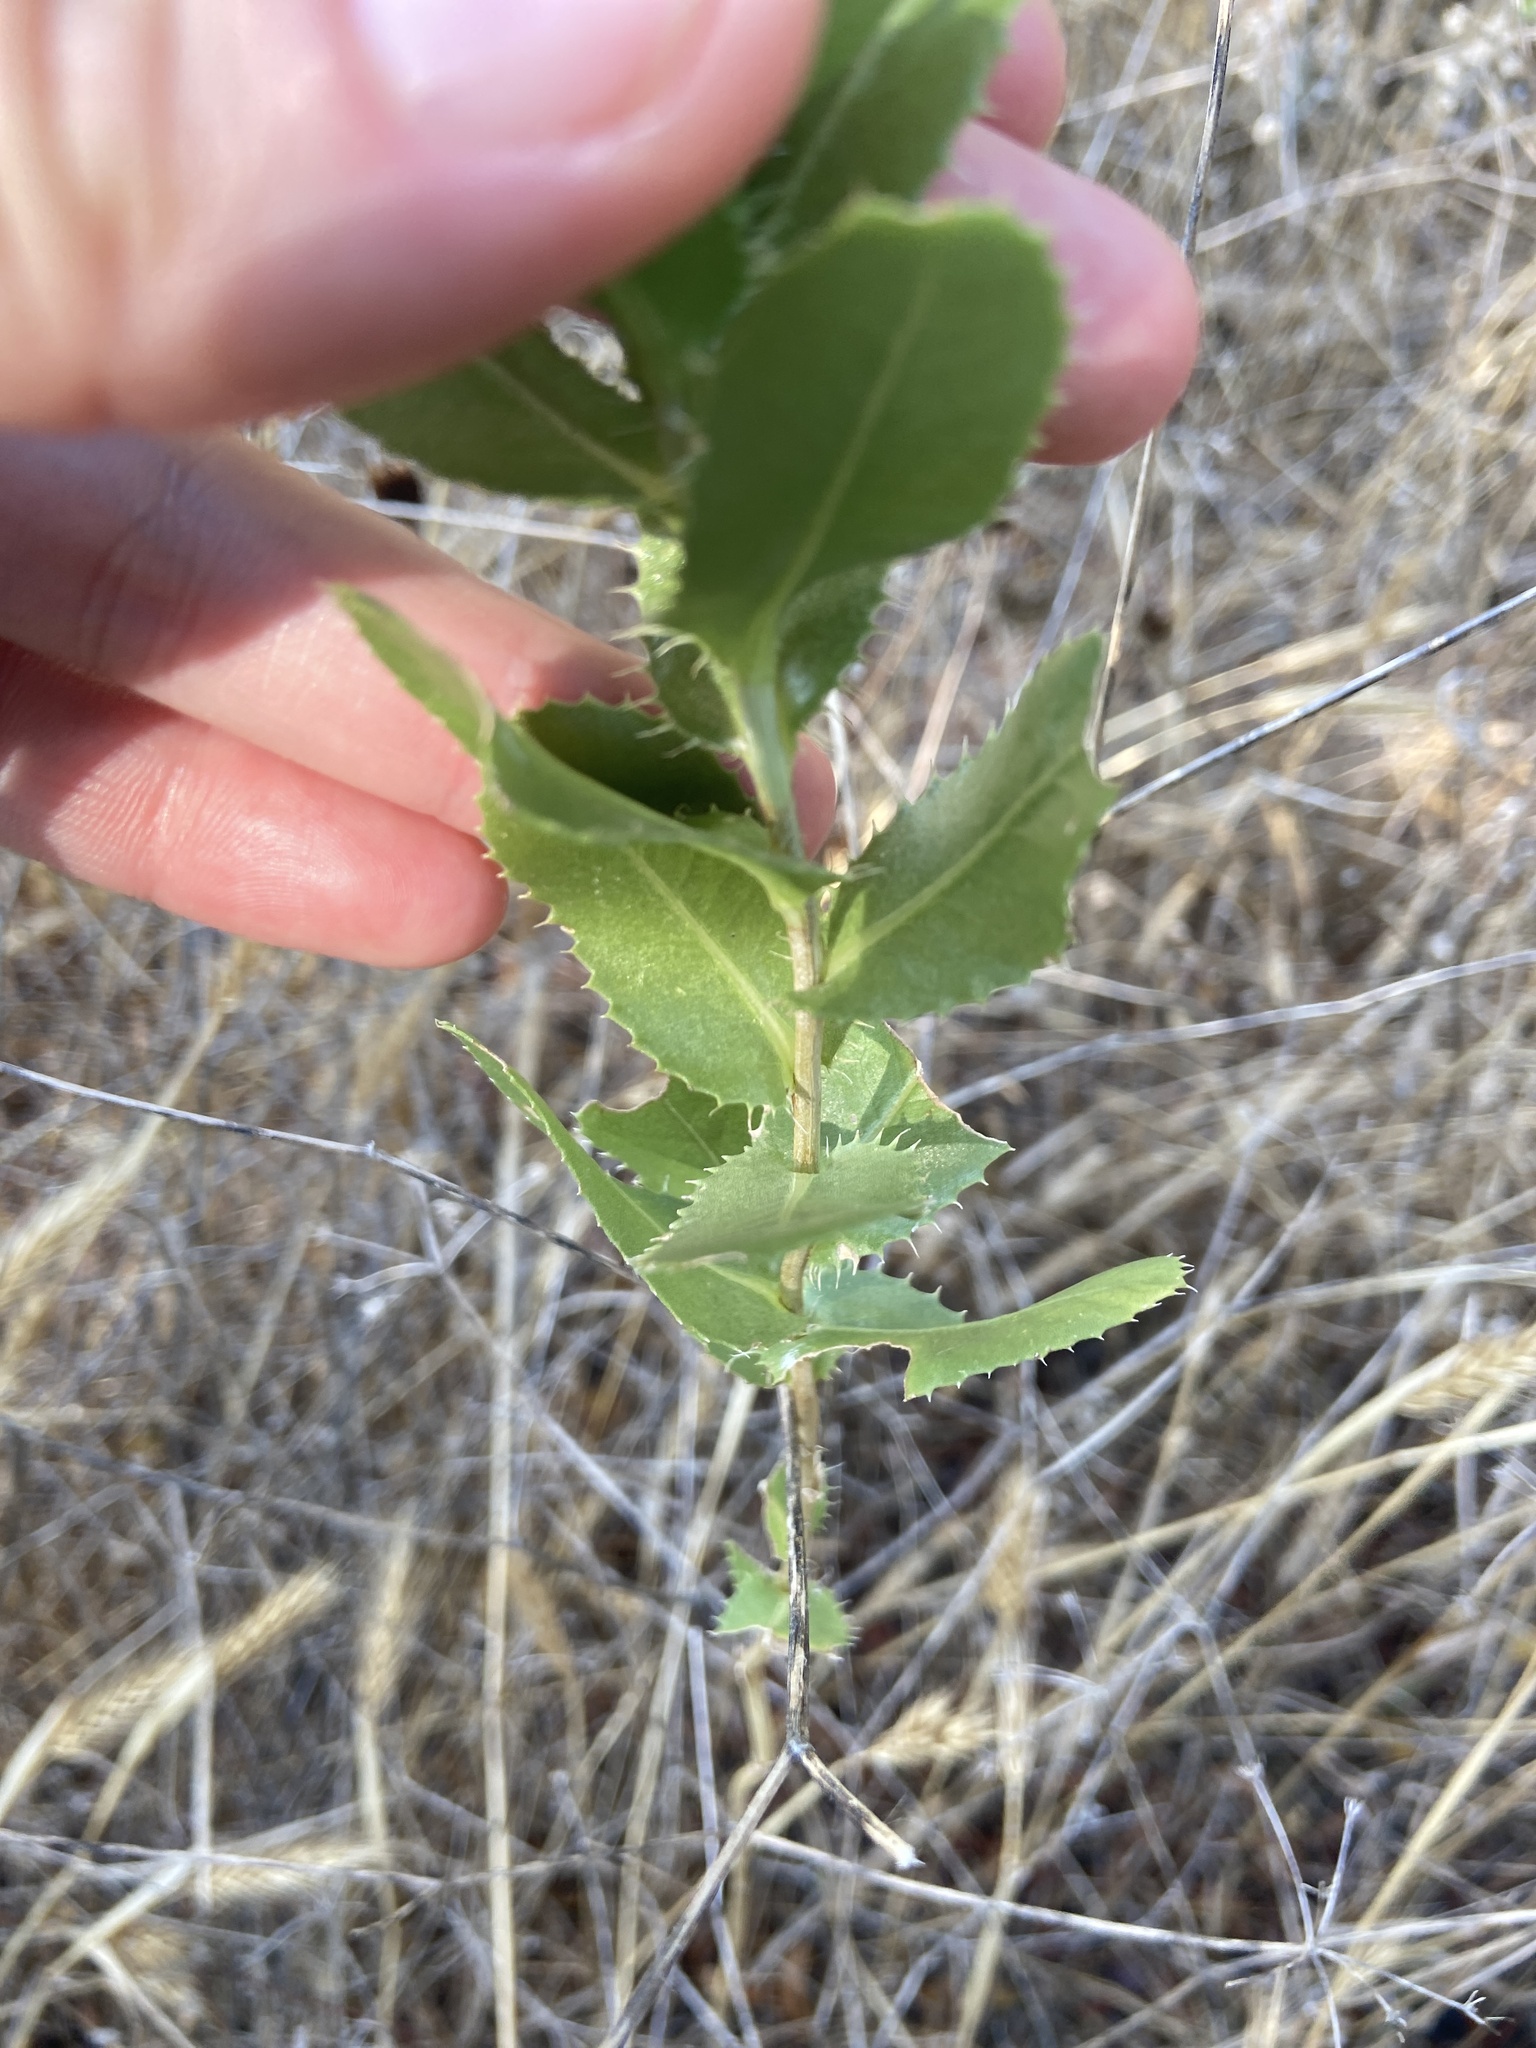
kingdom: Plantae
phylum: Tracheophyta
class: Magnoliopsida
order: Asterales
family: Asteraceae
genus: Grindelia
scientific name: Grindelia ciliata
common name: Goldenweed
